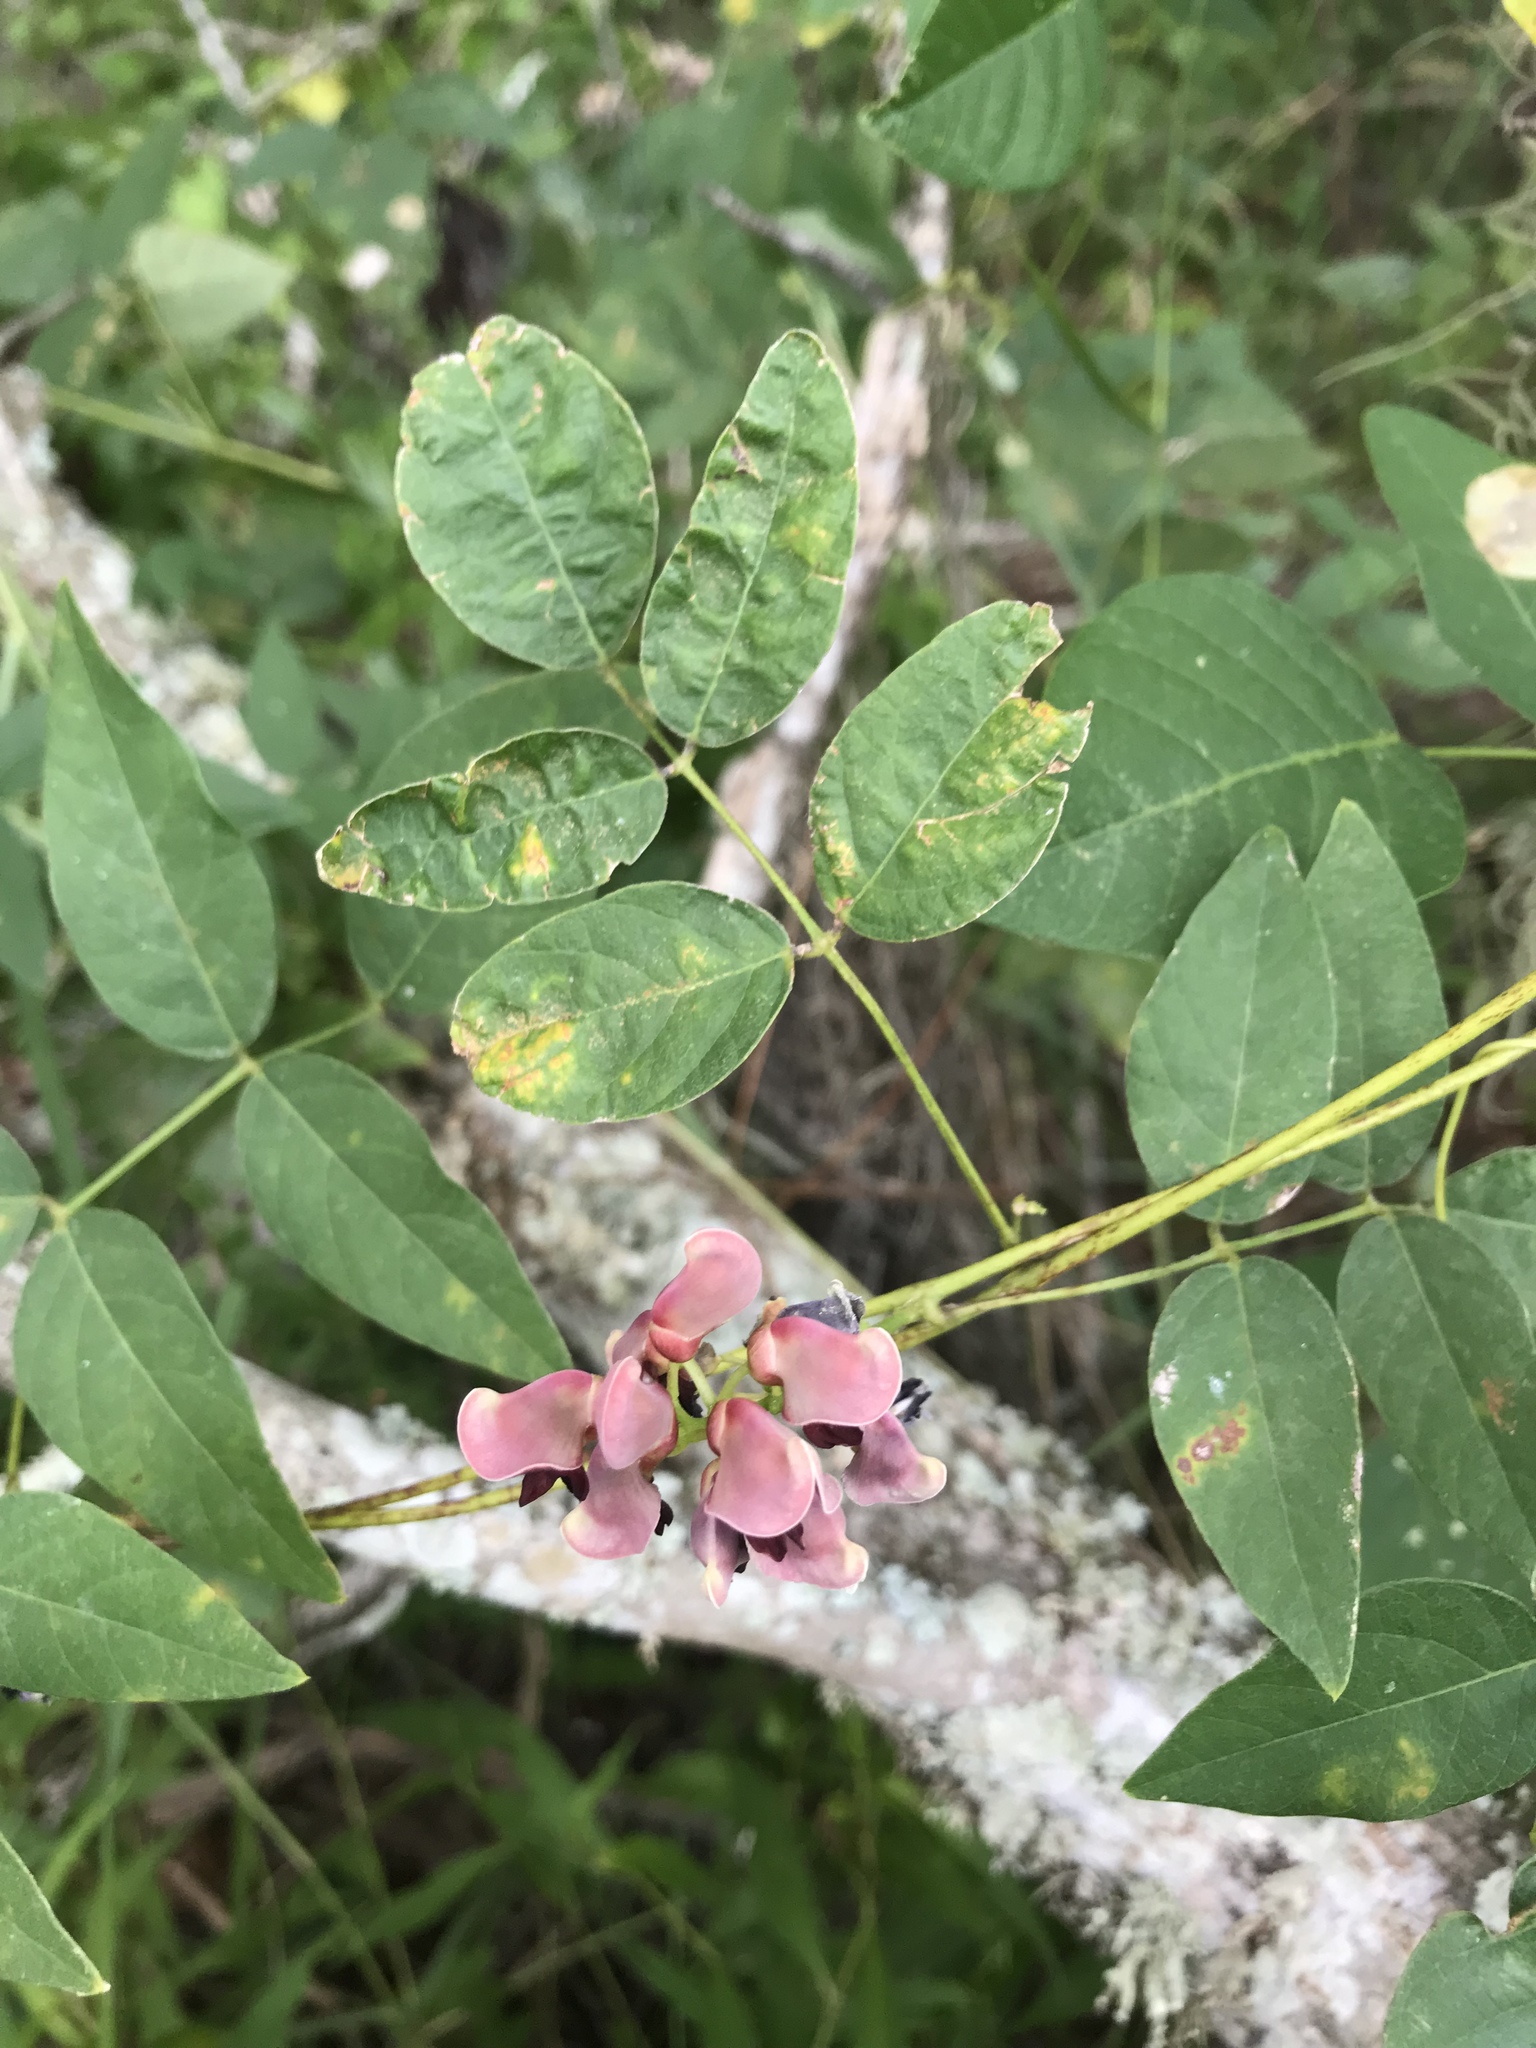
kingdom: Plantae
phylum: Tracheophyta
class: Magnoliopsida
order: Fabales
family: Fabaceae
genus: Apios
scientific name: Apios americana
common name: American potato-bean
